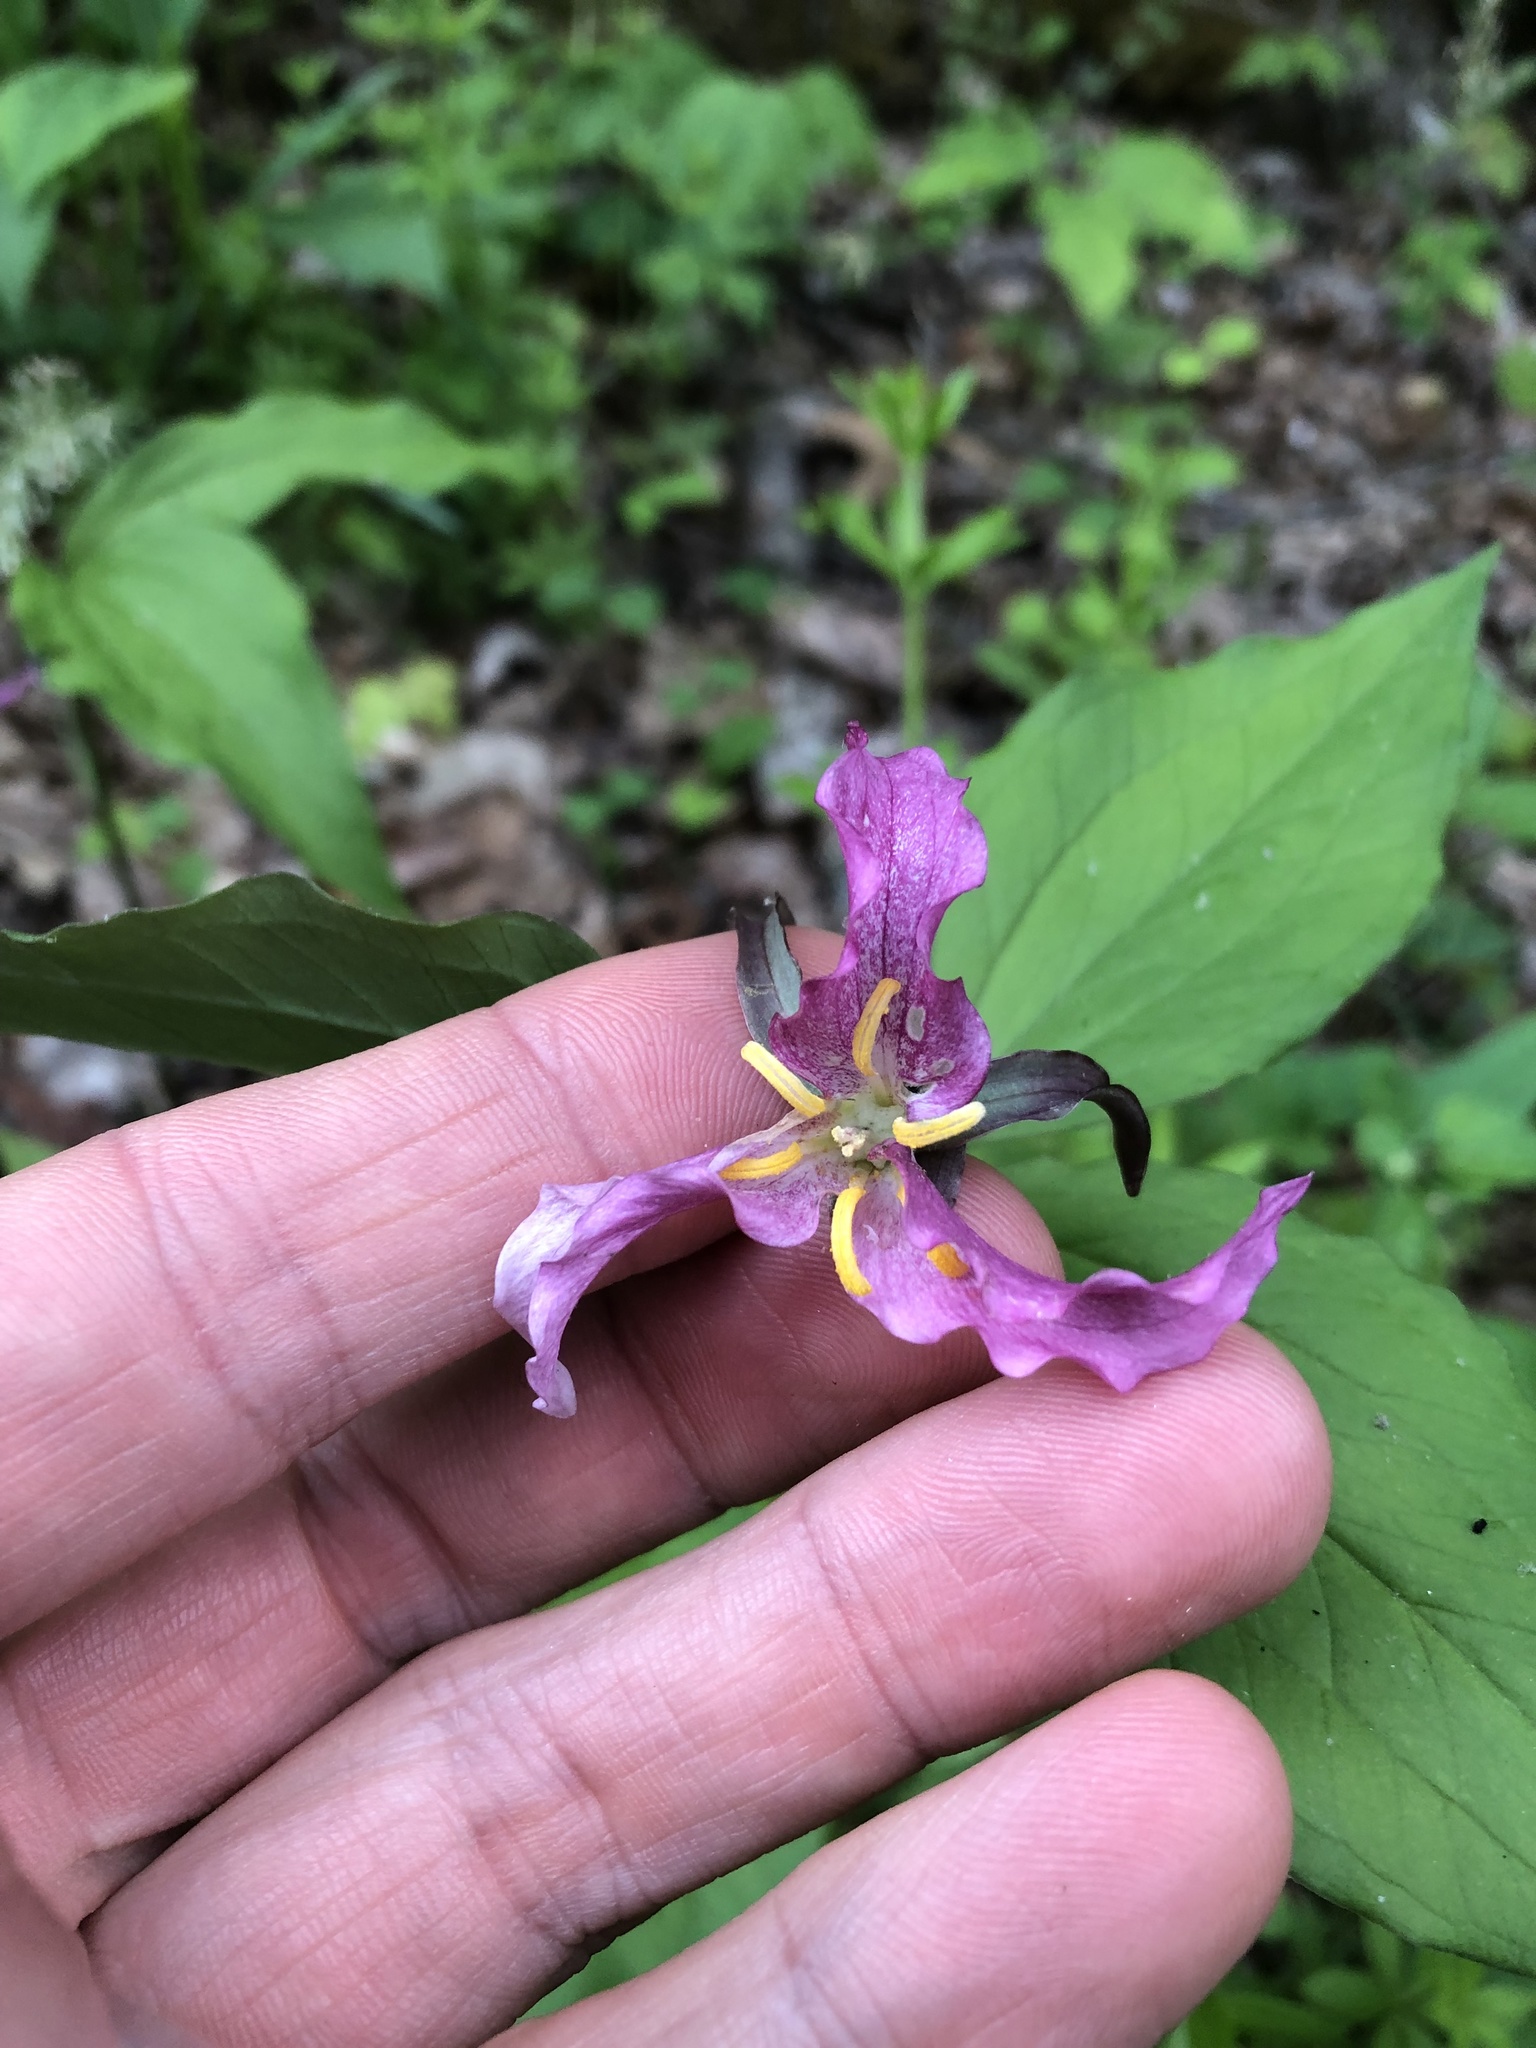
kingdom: Plantae
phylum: Tracheophyta
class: Liliopsida
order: Liliales
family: Melanthiaceae
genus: Trillium
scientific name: Trillium catesbaei
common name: Bashful trillium
